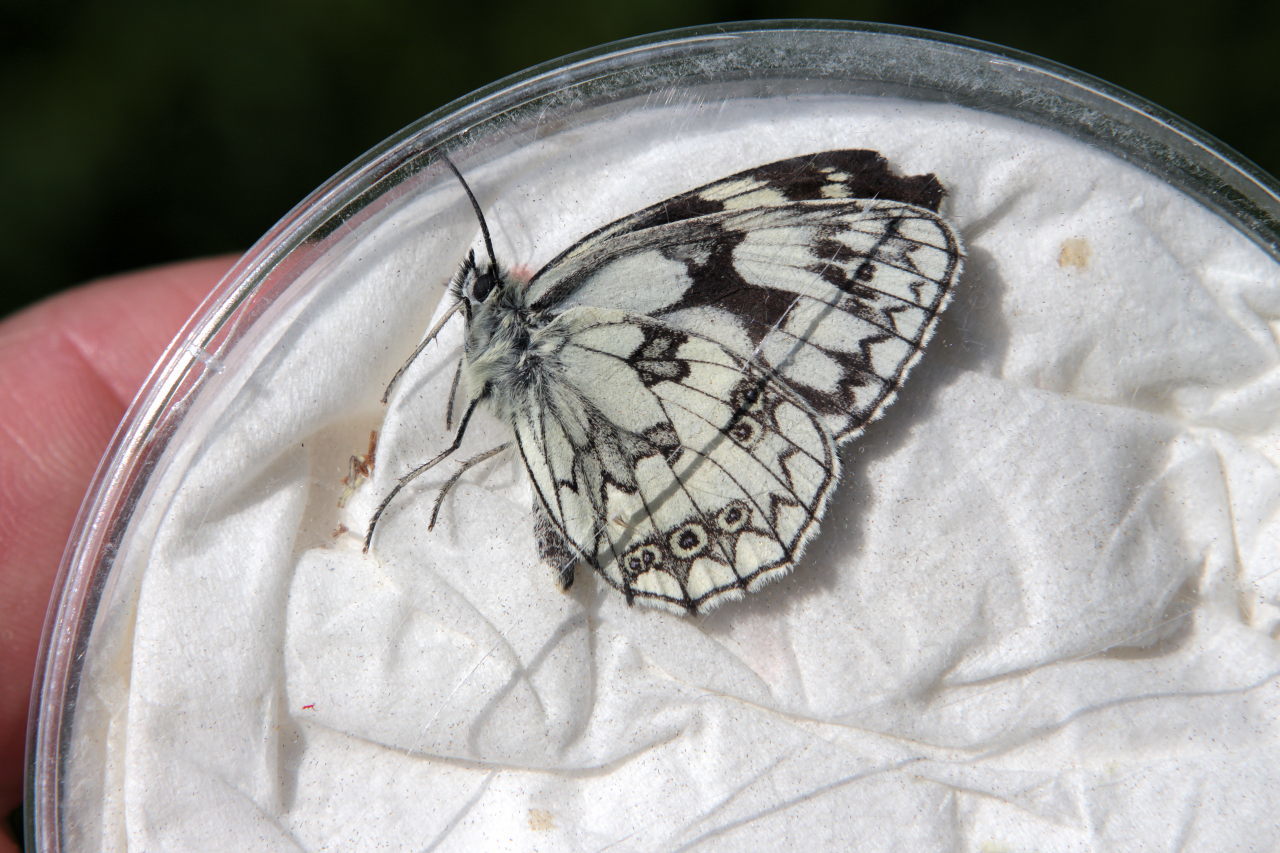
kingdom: Animalia
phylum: Arthropoda
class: Insecta
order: Lepidoptera
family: Nymphalidae
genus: Melanargia
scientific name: Melanargia galathea
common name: Marbled white
